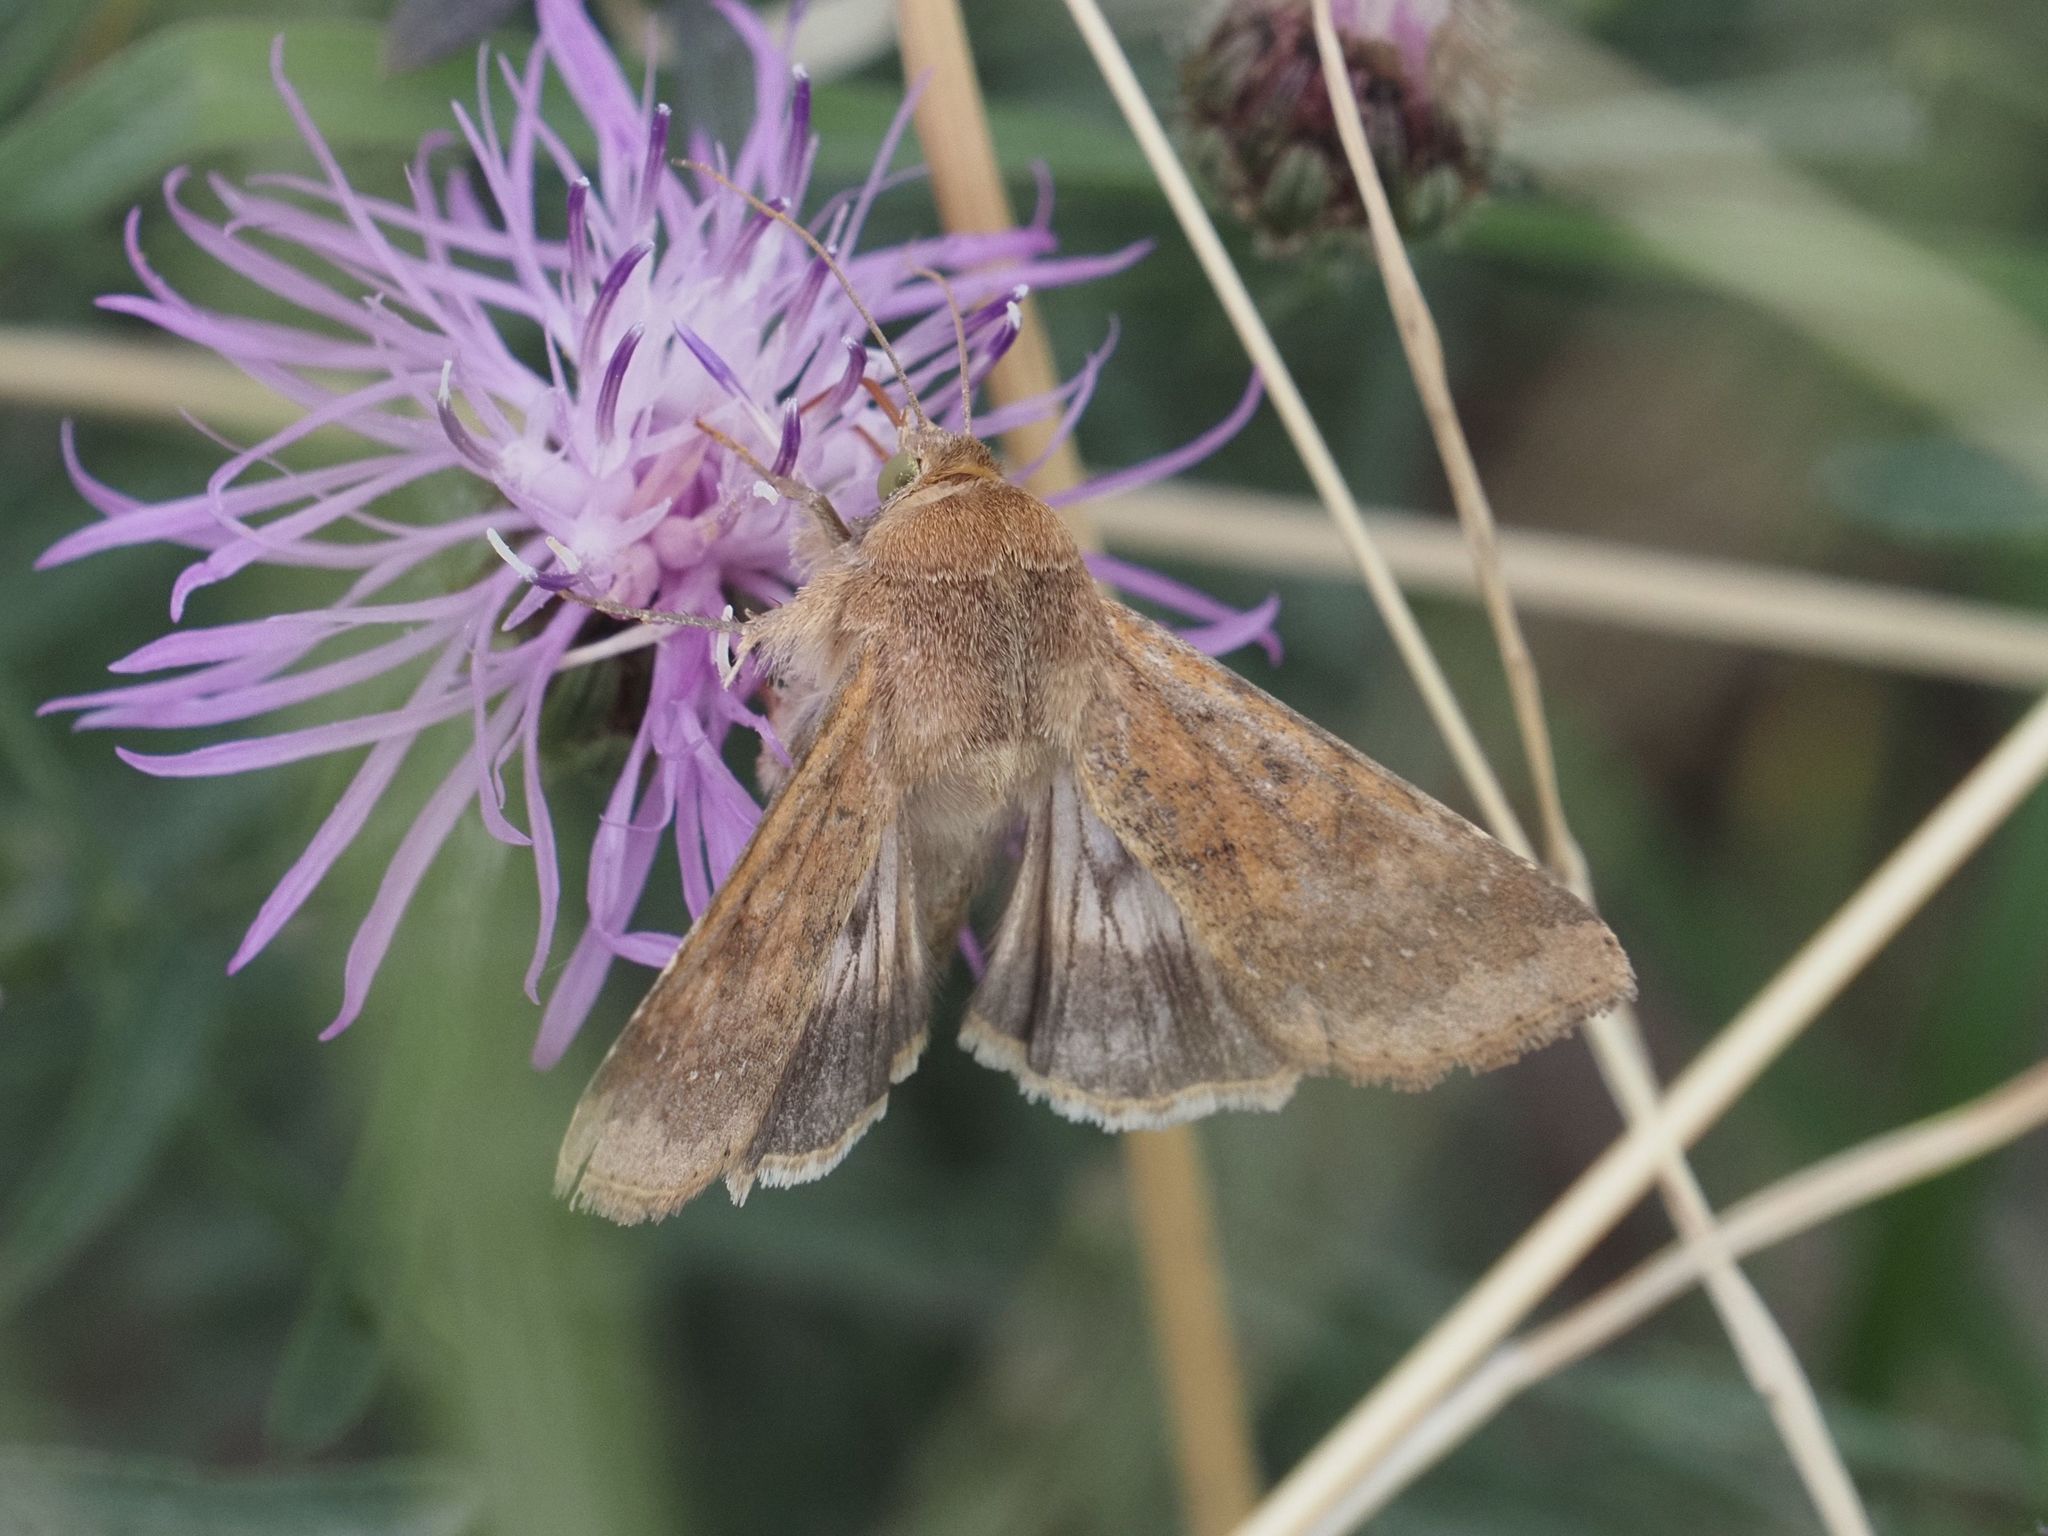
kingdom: Animalia
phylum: Arthropoda
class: Insecta
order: Lepidoptera
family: Noctuidae
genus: Helicoverpa
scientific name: Helicoverpa armigera
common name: Cotton bollworm
